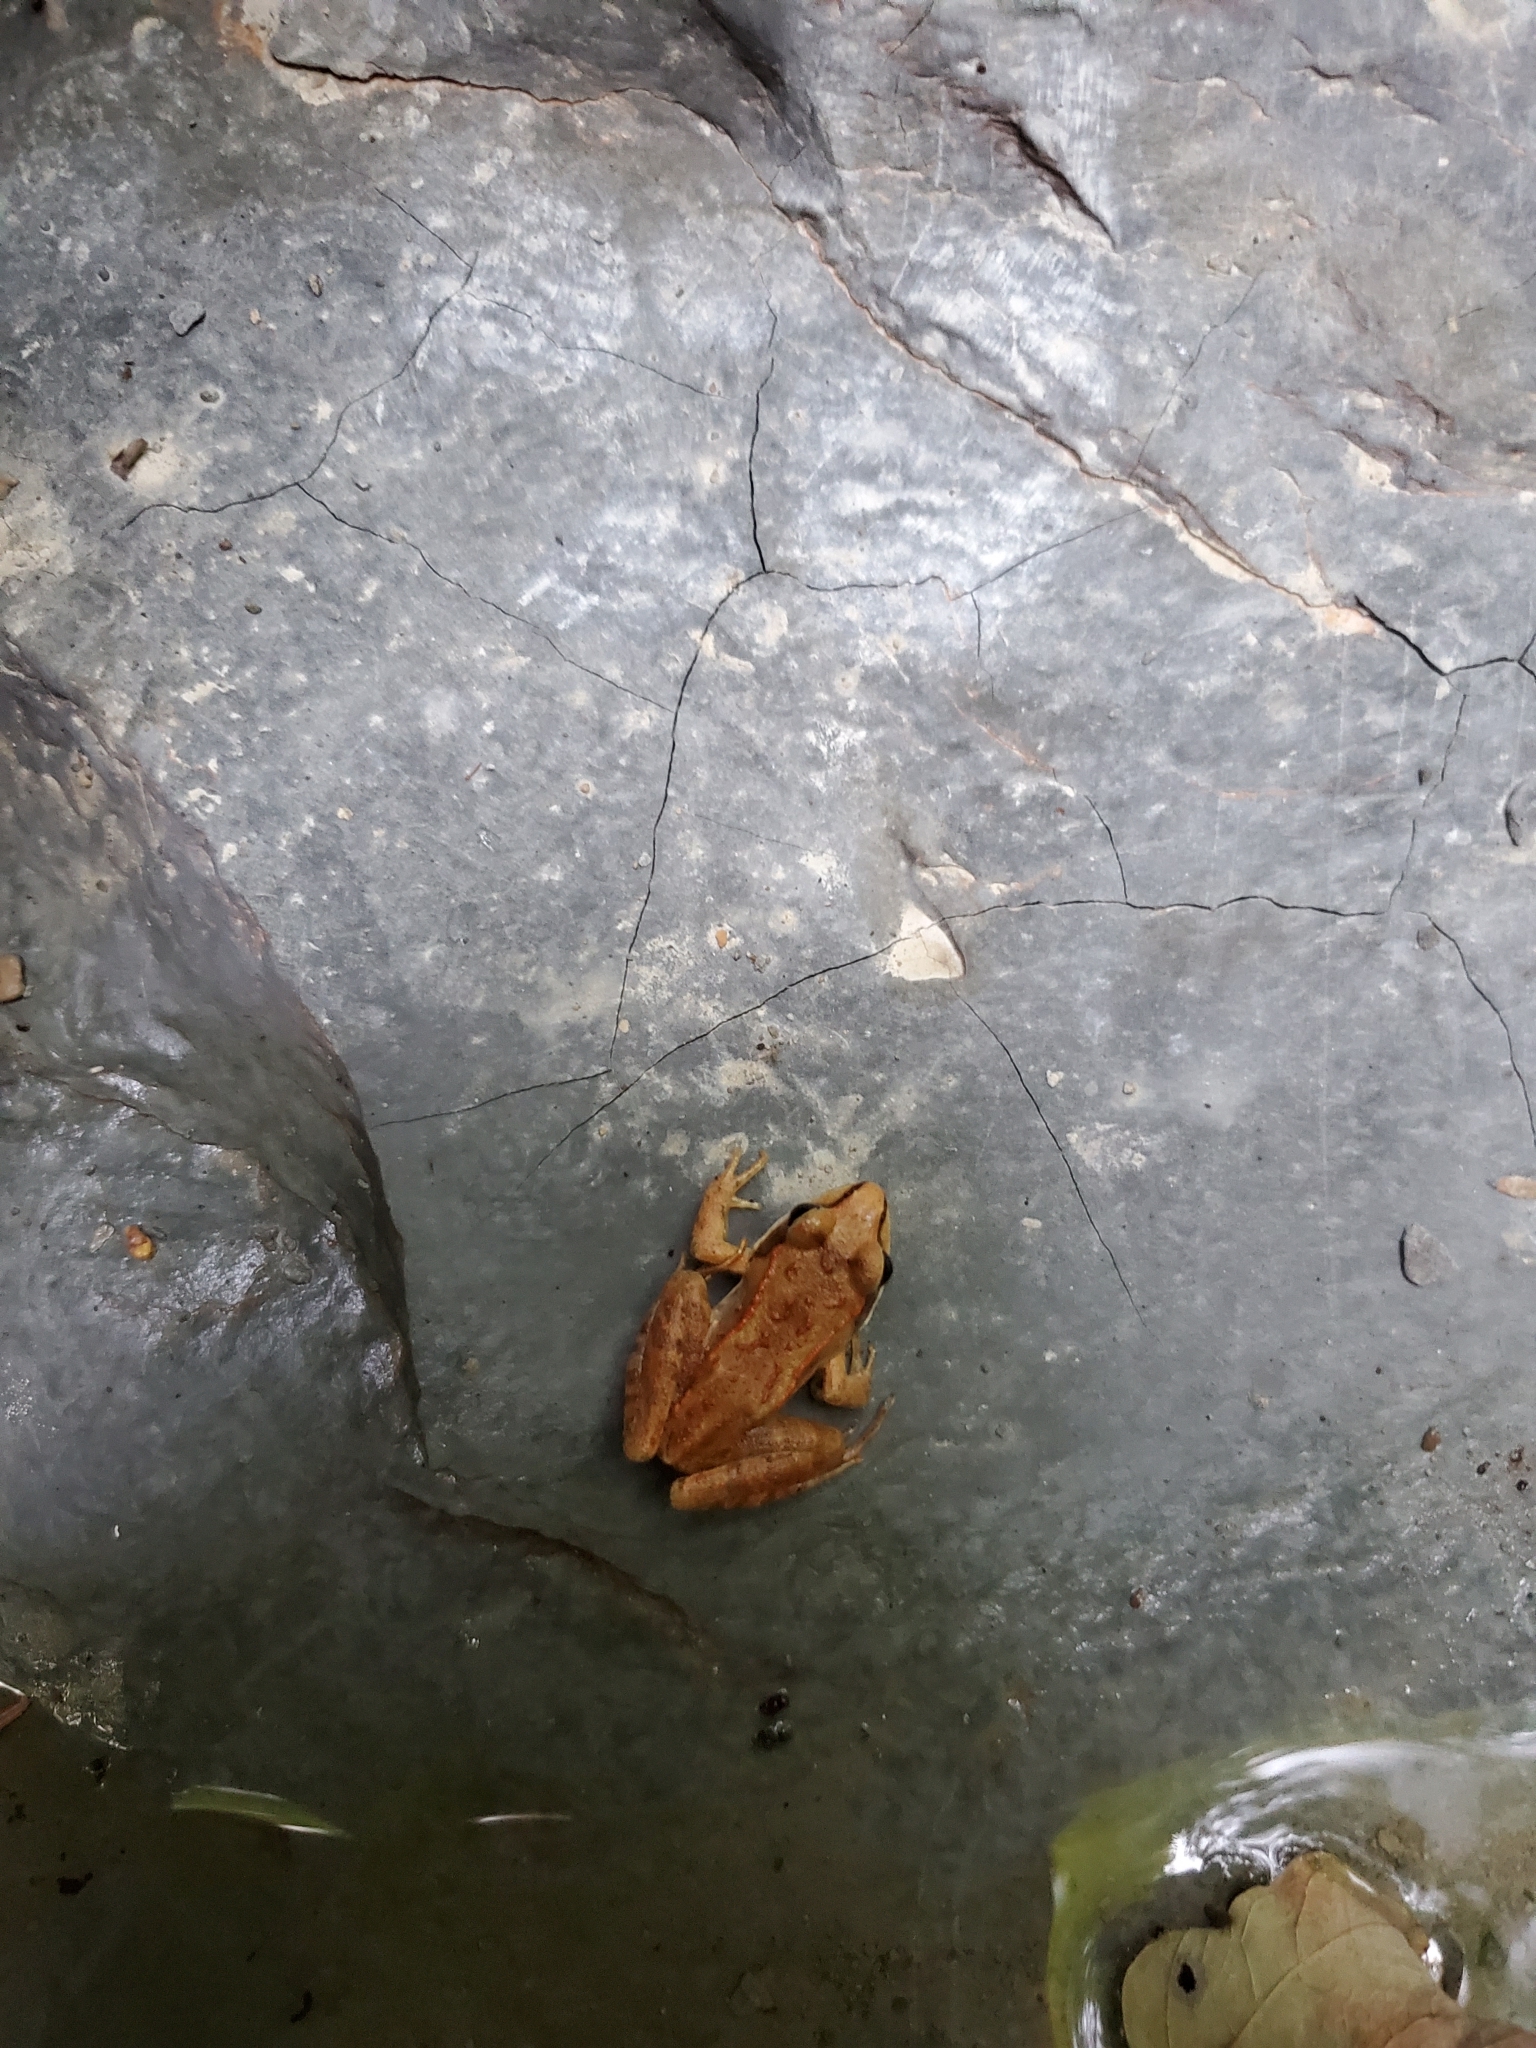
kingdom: Animalia
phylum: Chordata
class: Amphibia
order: Anura
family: Ranidae
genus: Lithobates
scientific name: Lithobates sylvaticus
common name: Wood frog
